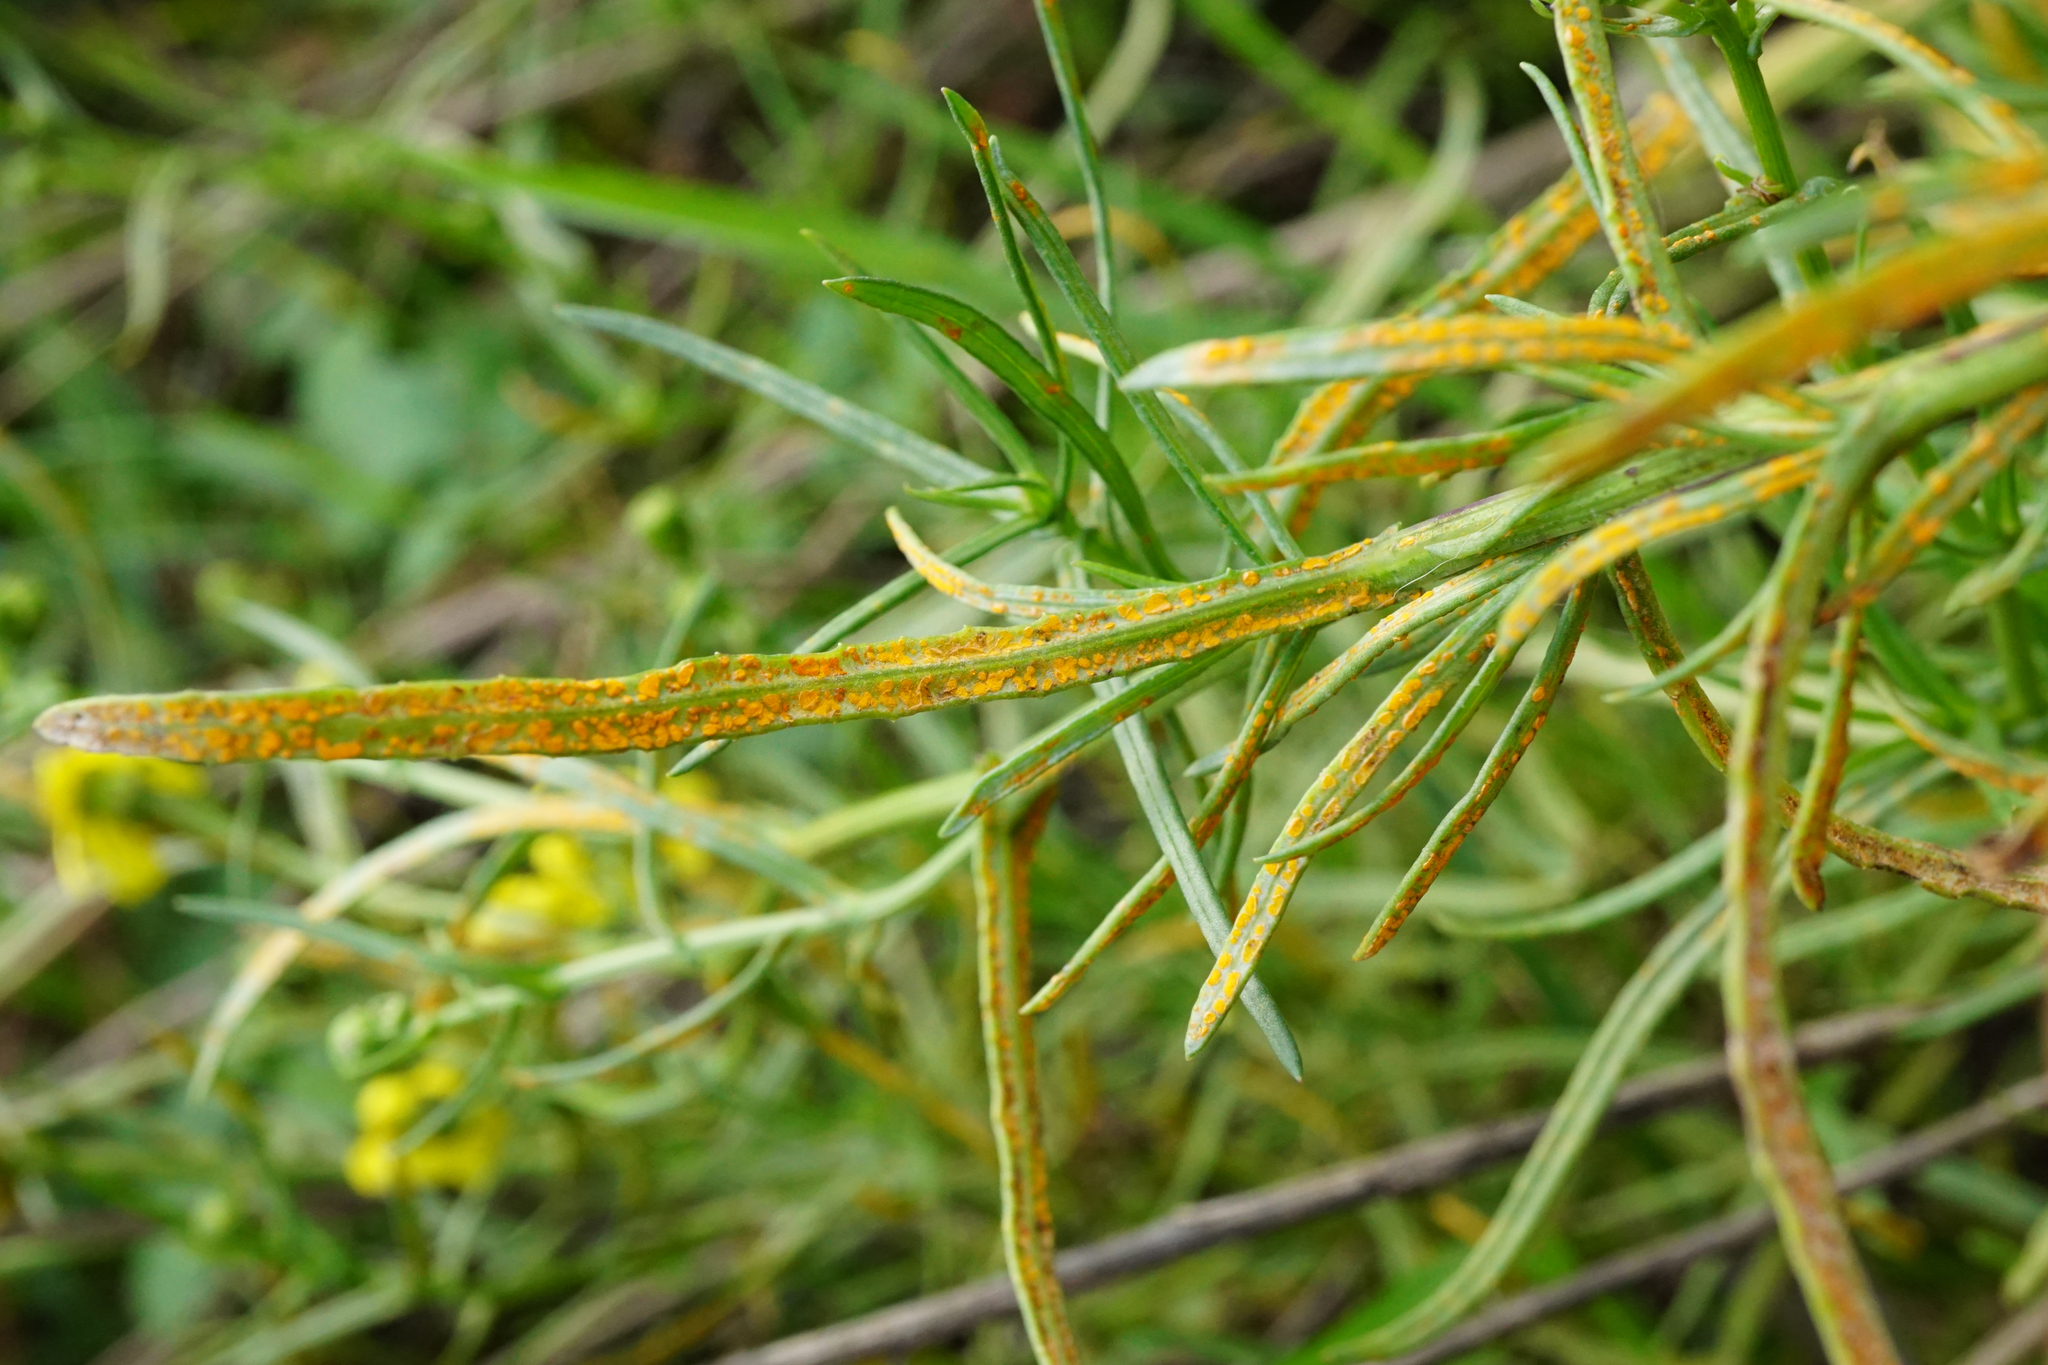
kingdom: Plantae
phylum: Tracheophyta
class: Magnoliopsida
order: Asterales
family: Asteraceae
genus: Senecio
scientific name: Senecio inaequidens
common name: Narrow-leaved ragwort
